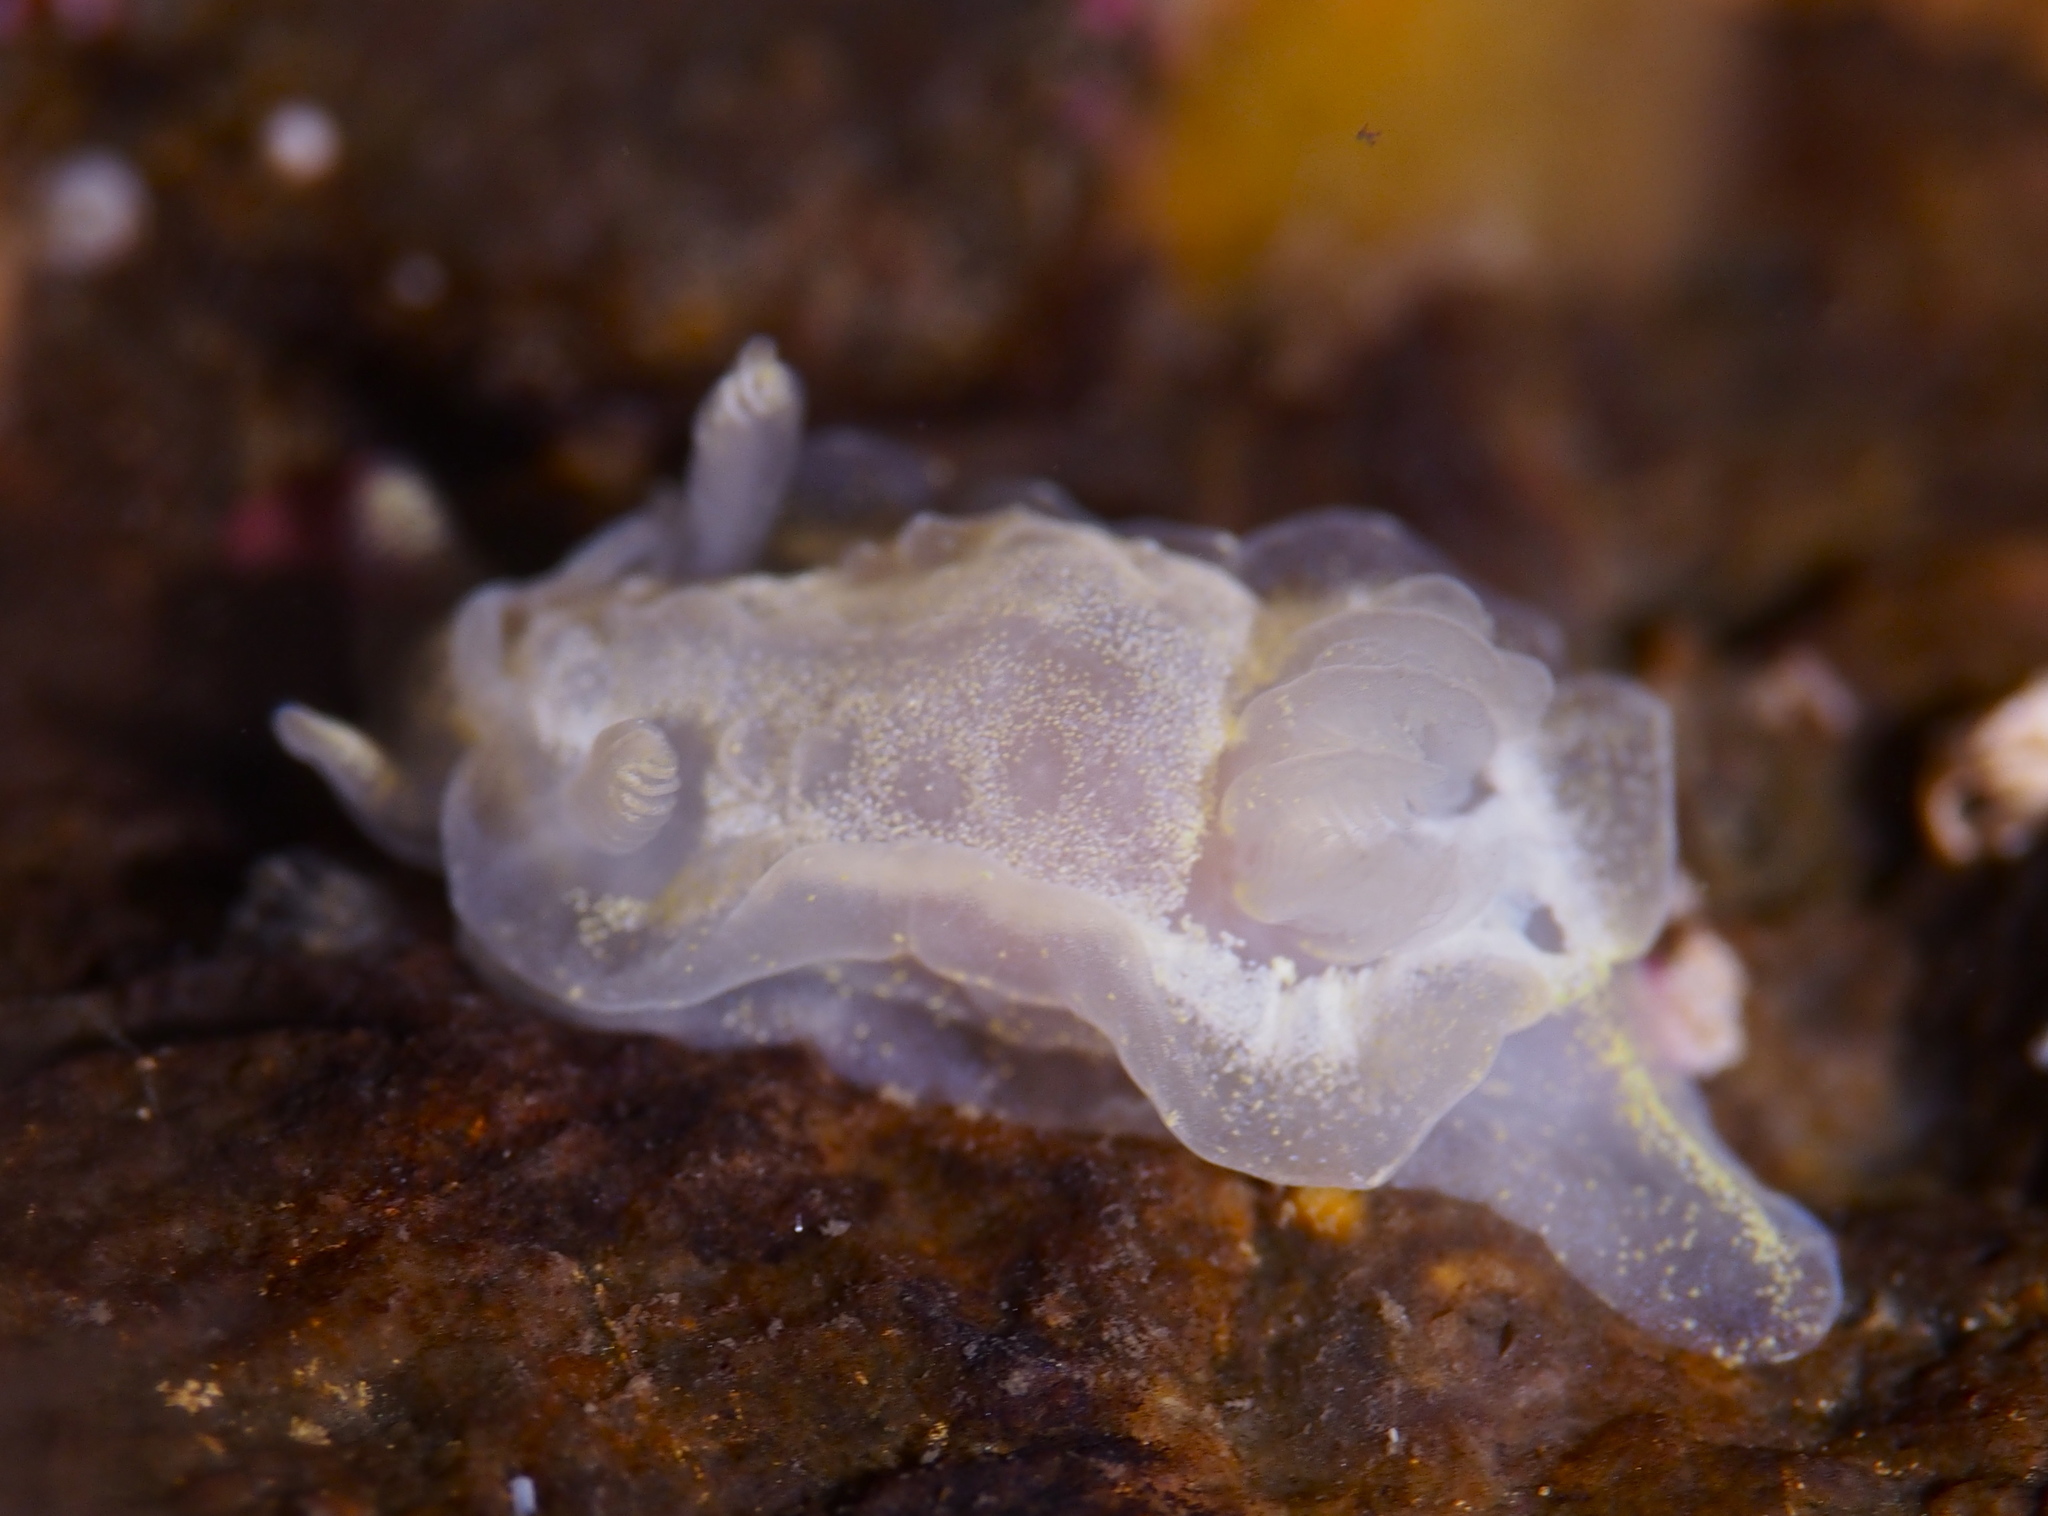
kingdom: Animalia
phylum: Mollusca
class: Gastropoda
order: Nudibranchia
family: Goniodorididae
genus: Okenia
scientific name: Okenia
